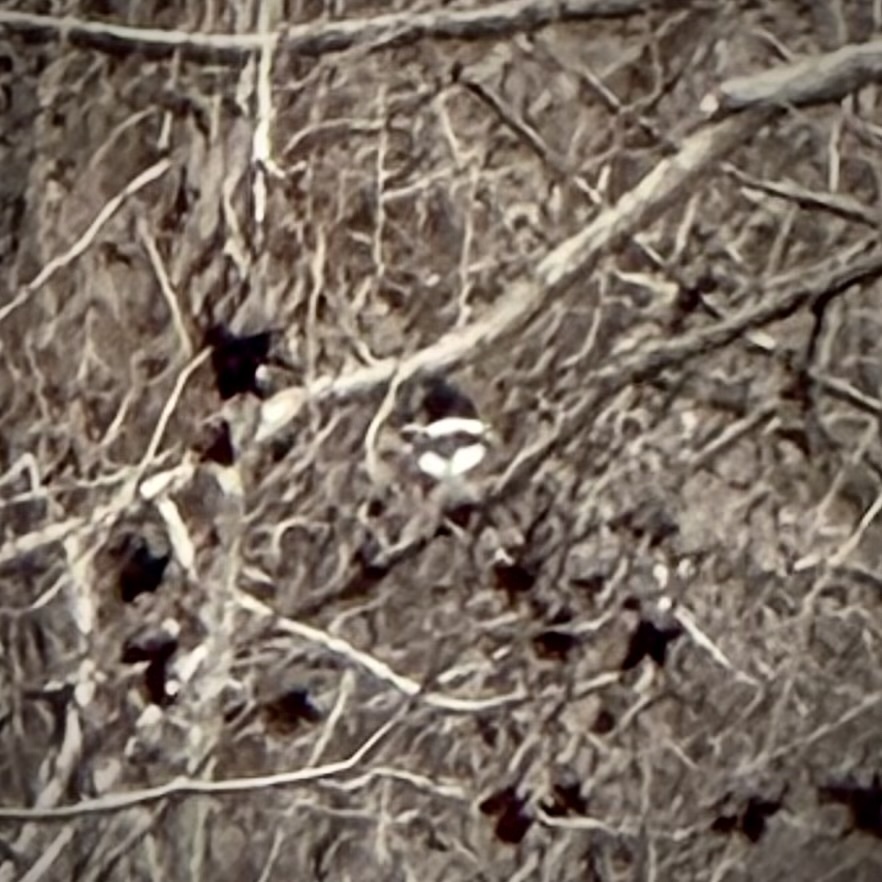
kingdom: Animalia
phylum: Chordata
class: Aves
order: Coraciiformes
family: Alcedinidae
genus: Megaceryle
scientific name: Megaceryle alcyon
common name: Belted kingfisher
